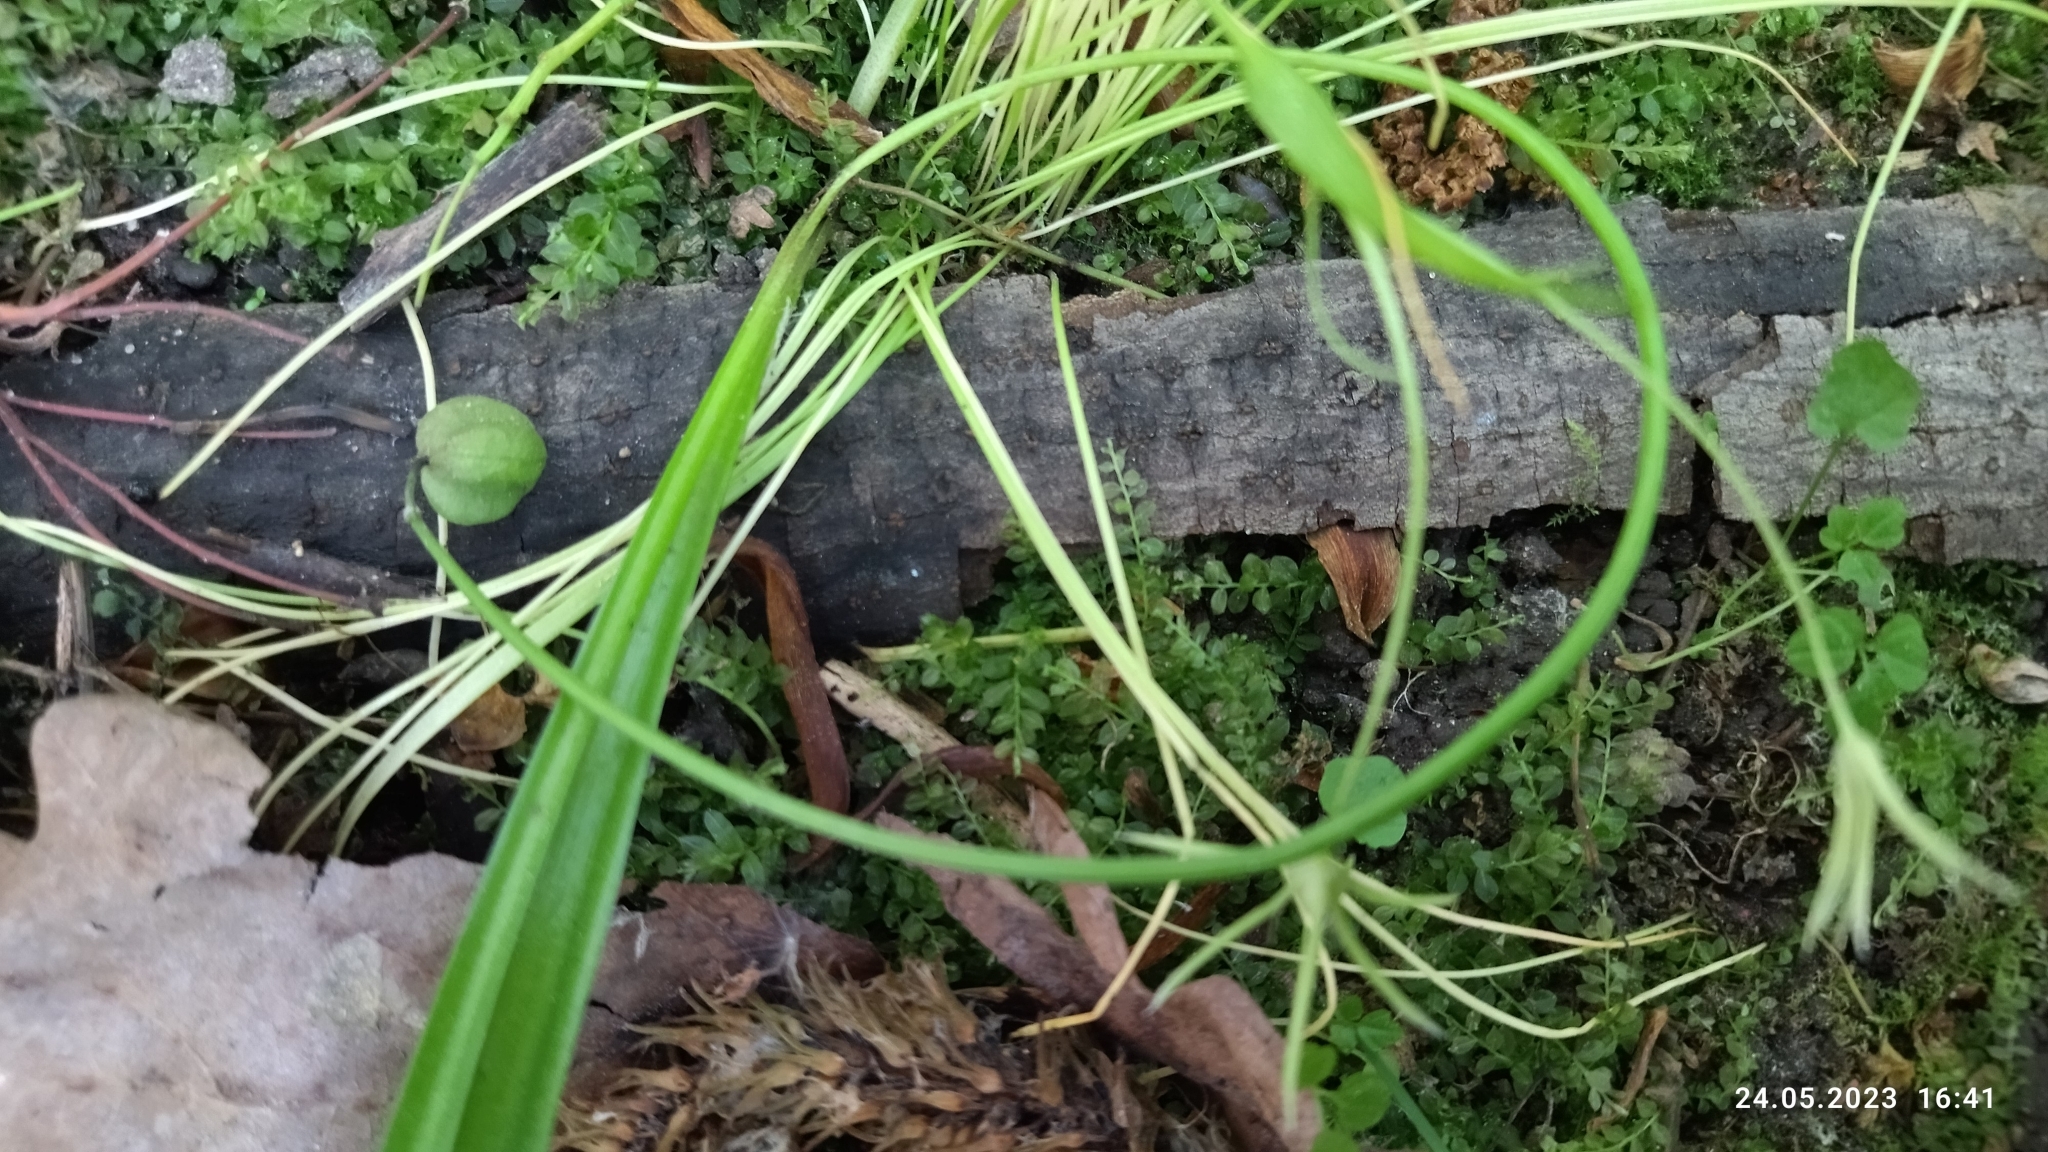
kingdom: Plantae
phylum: Tracheophyta
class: Liliopsida
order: Asparagales
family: Asparagaceae
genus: Scilla
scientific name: Scilla siberica
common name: Siberian squill
